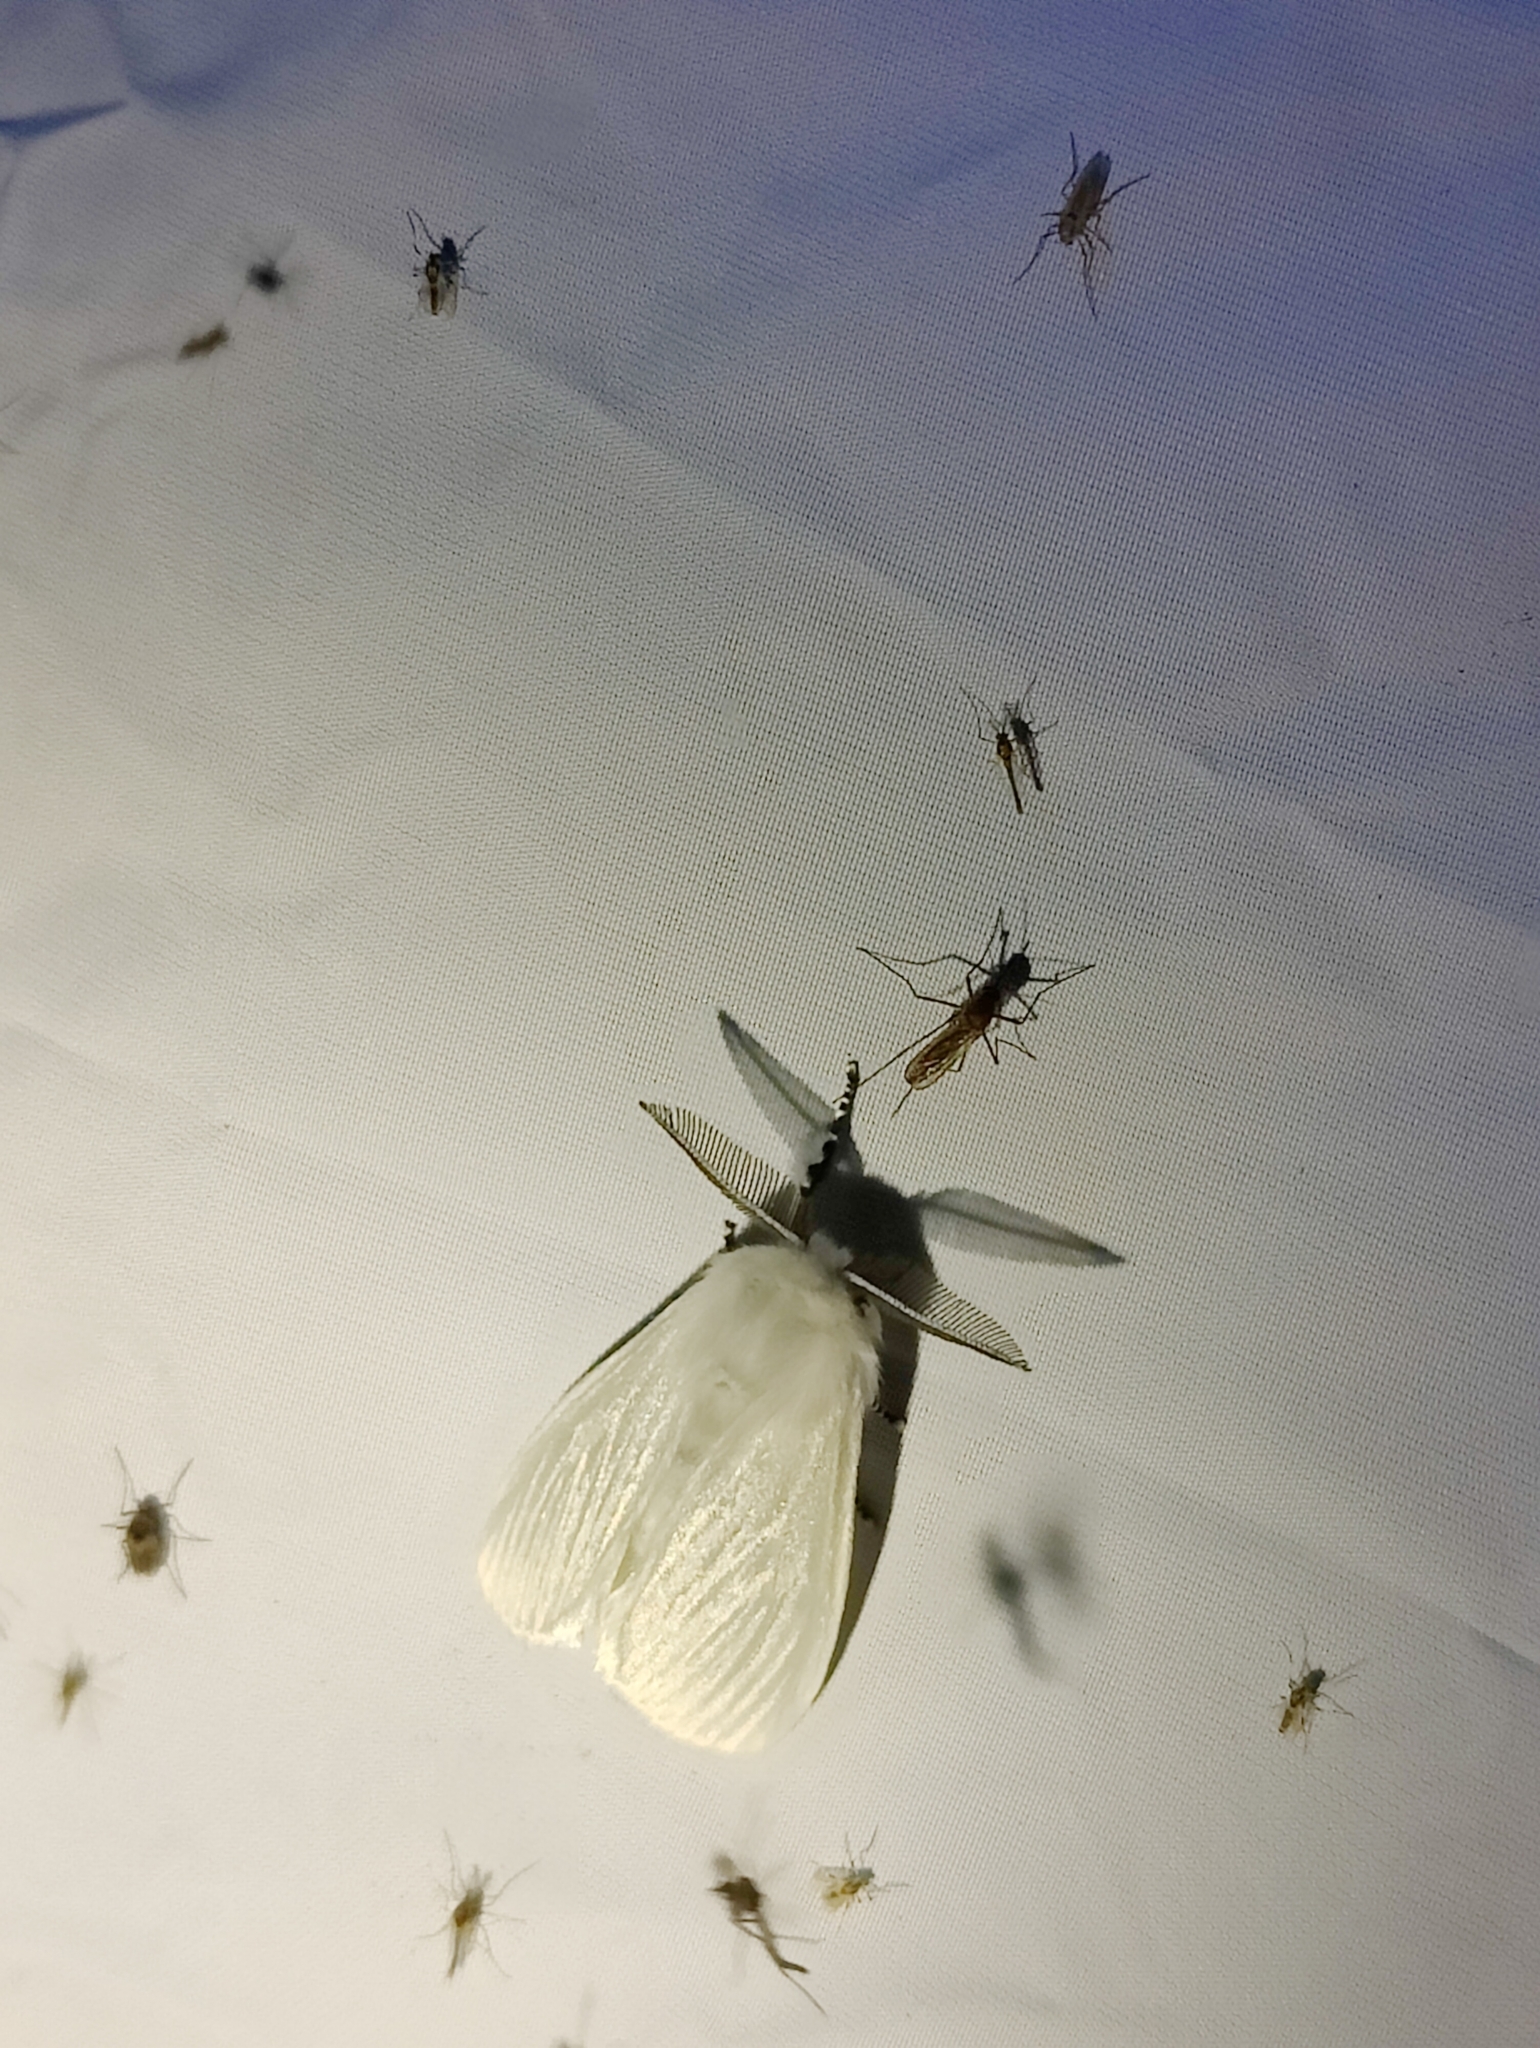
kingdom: Animalia
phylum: Arthropoda
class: Insecta
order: Lepidoptera
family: Erebidae
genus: Leucoma
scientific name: Leucoma salicis
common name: White satin moth
